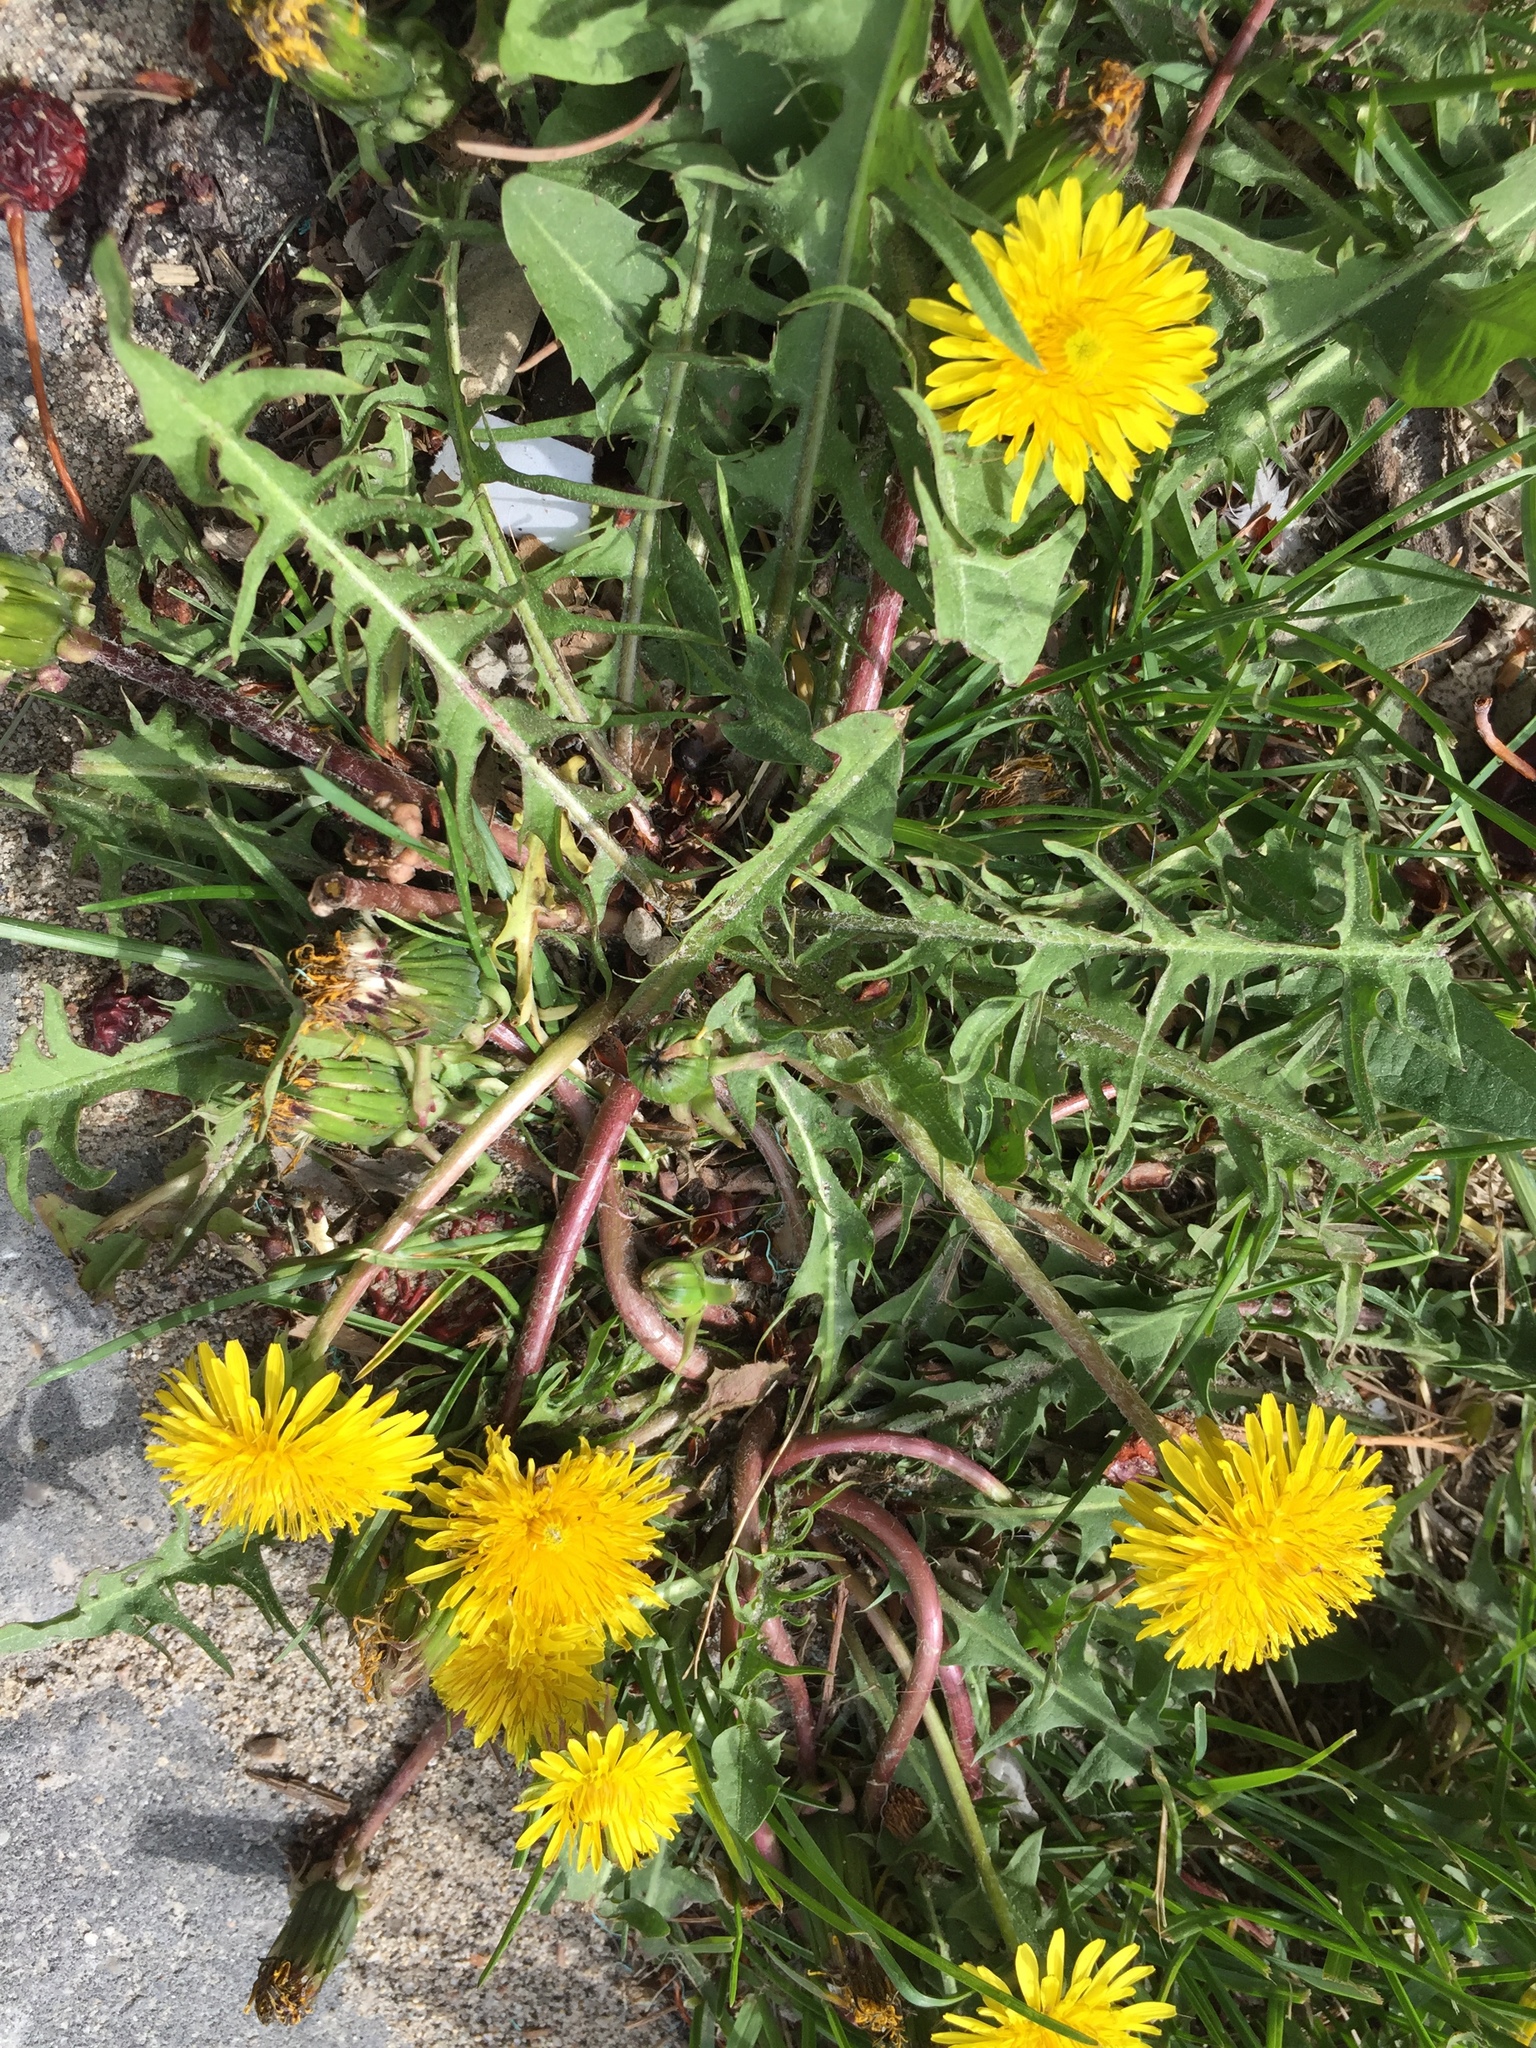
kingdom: Plantae
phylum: Tracheophyta
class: Magnoliopsida
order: Asterales
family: Asteraceae
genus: Taraxacum
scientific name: Taraxacum officinale
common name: Common dandelion
